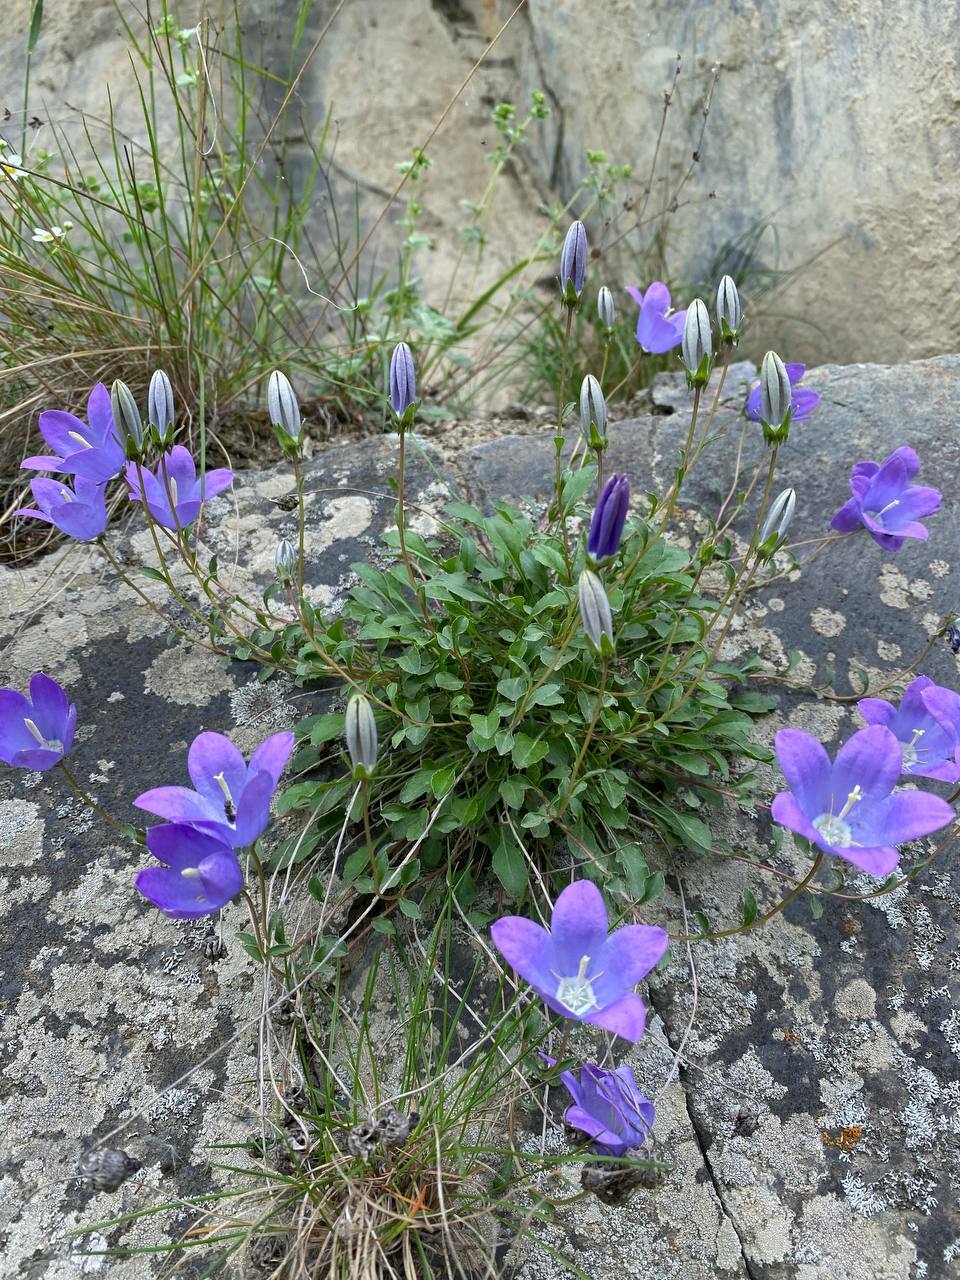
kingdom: Plantae
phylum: Tracheophyta
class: Magnoliopsida
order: Asterales
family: Campanulaceae
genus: Campanula
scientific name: Campanula saxifraga
